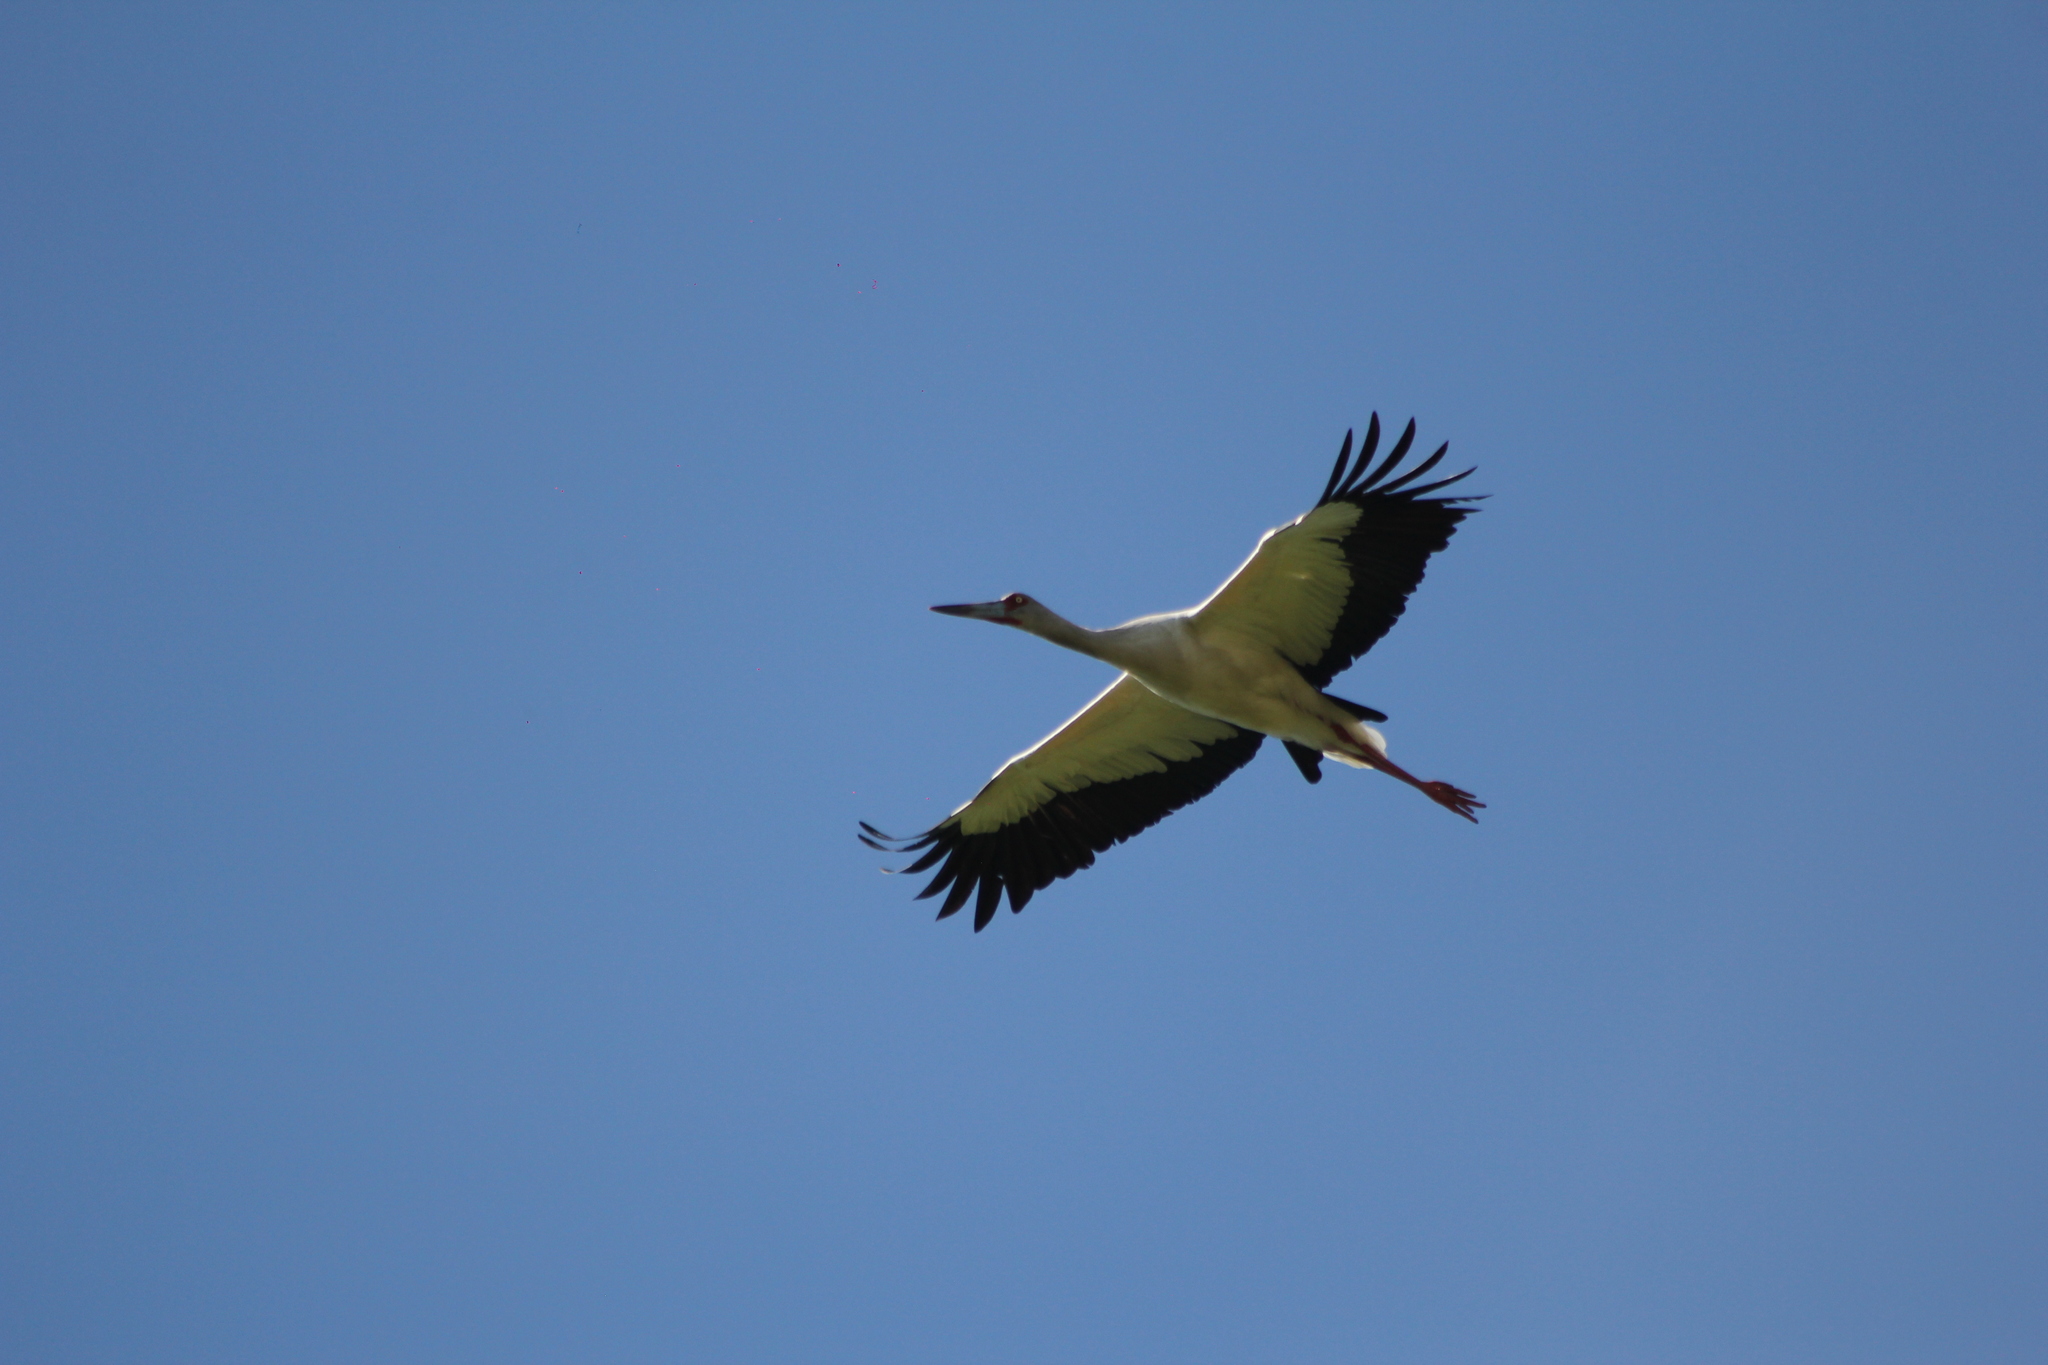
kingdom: Animalia
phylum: Chordata
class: Aves
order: Ciconiiformes
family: Ciconiidae
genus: Ciconia
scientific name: Ciconia maguari
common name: Maguari stork
